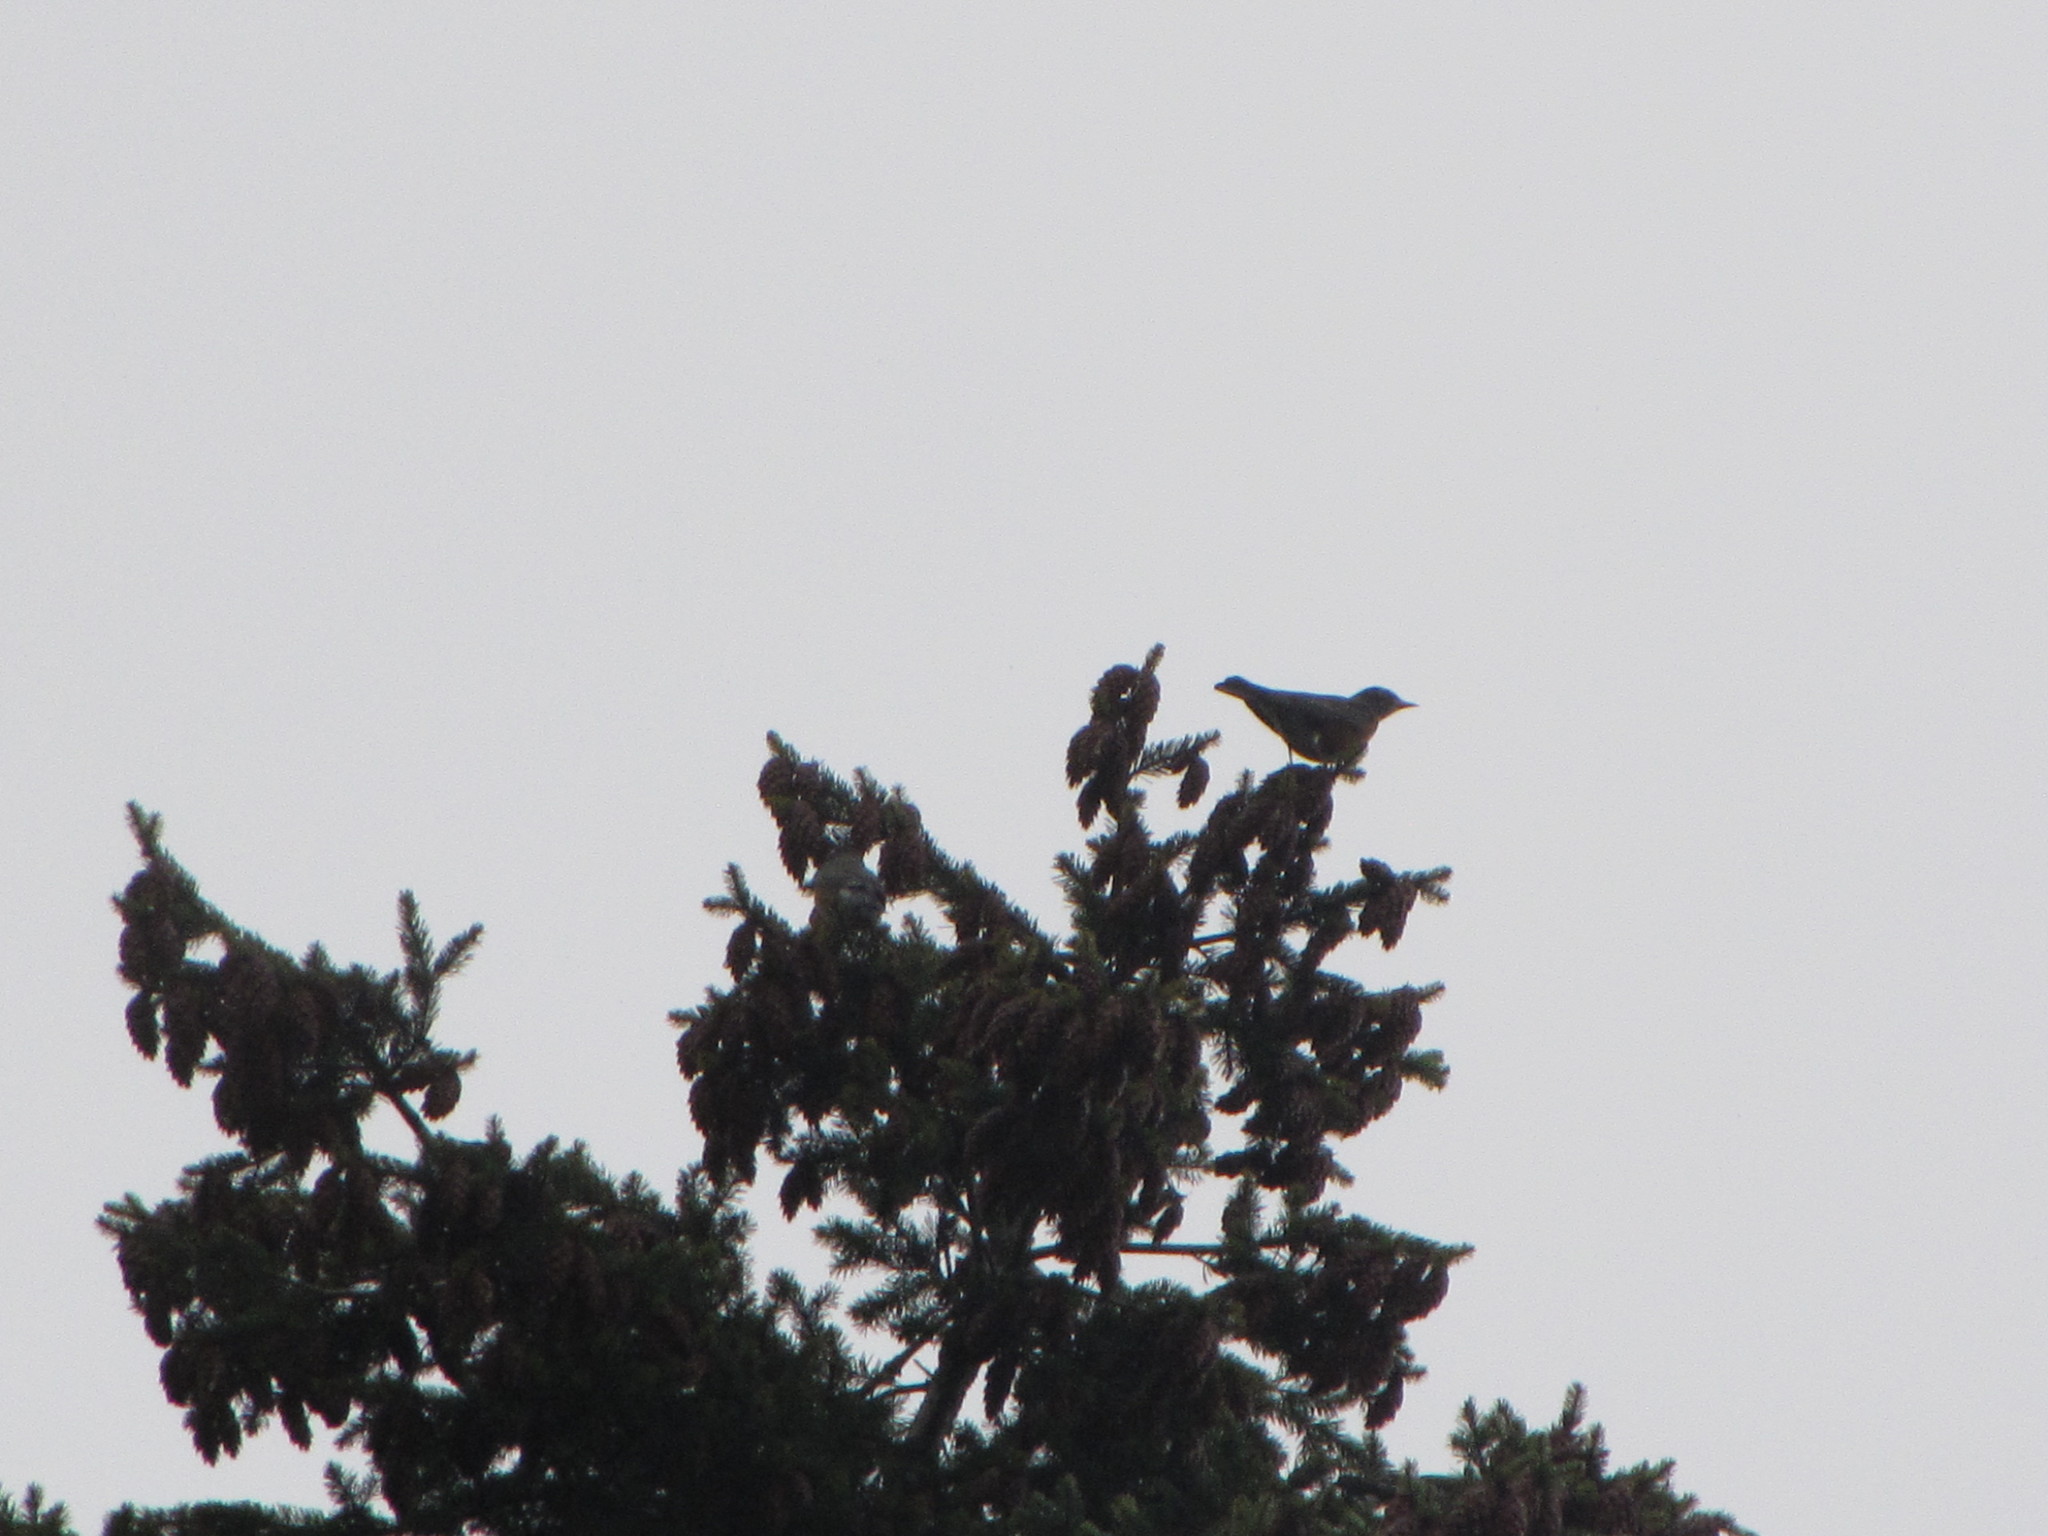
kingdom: Animalia
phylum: Chordata
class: Aves
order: Passeriformes
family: Turdidae
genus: Turdus
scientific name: Turdus migratorius
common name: American robin
